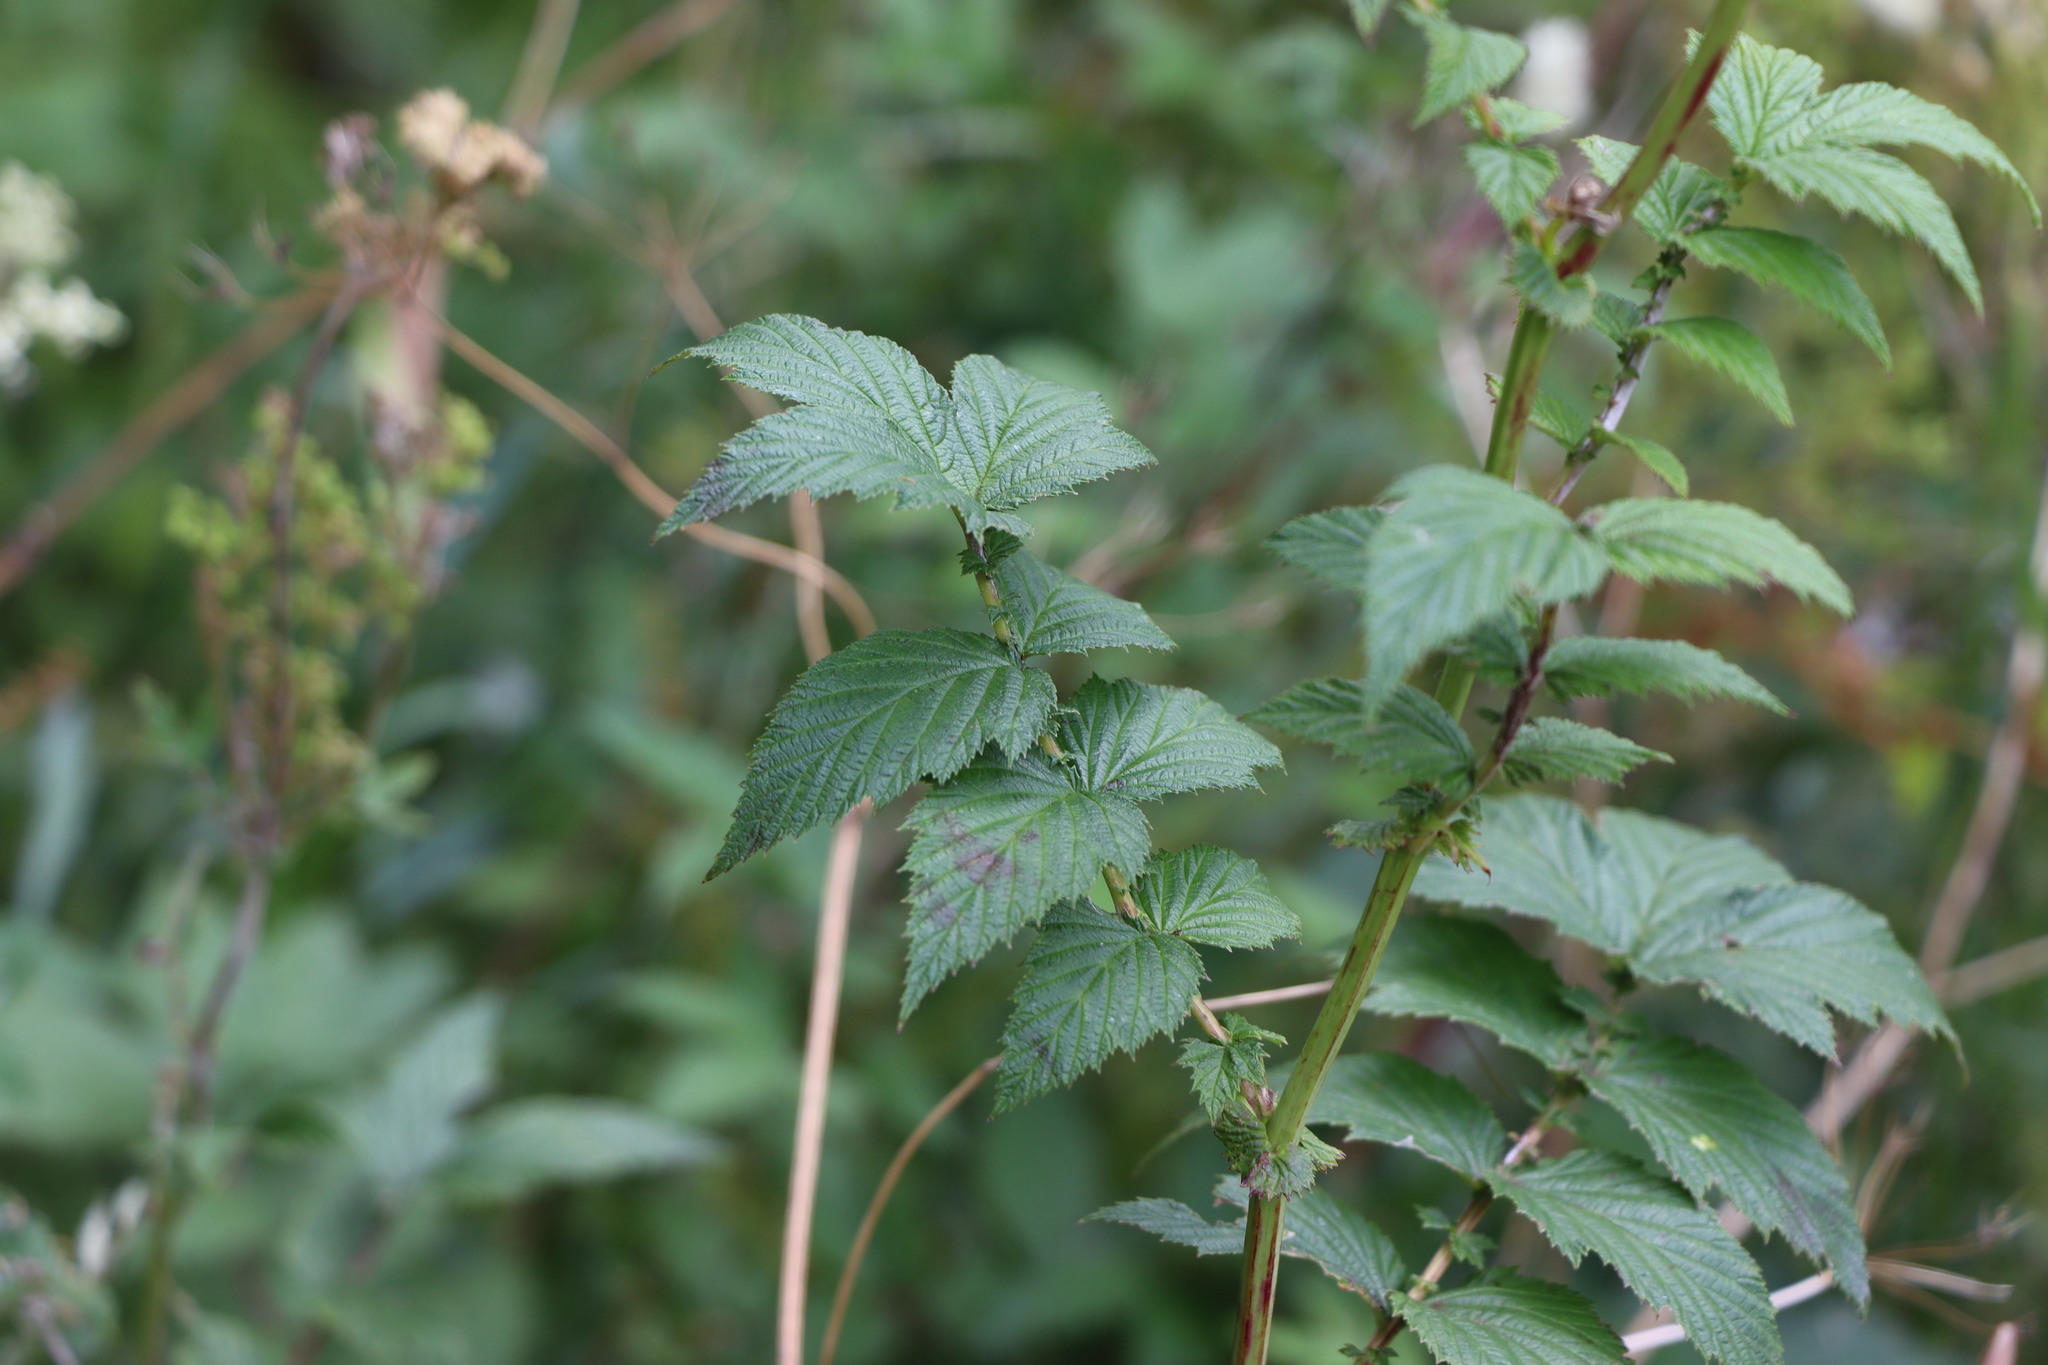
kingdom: Plantae
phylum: Tracheophyta
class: Magnoliopsida
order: Rosales
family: Rosaceae
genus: Filipendula
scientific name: Filipendula ulmaria
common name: Meadowsweet
